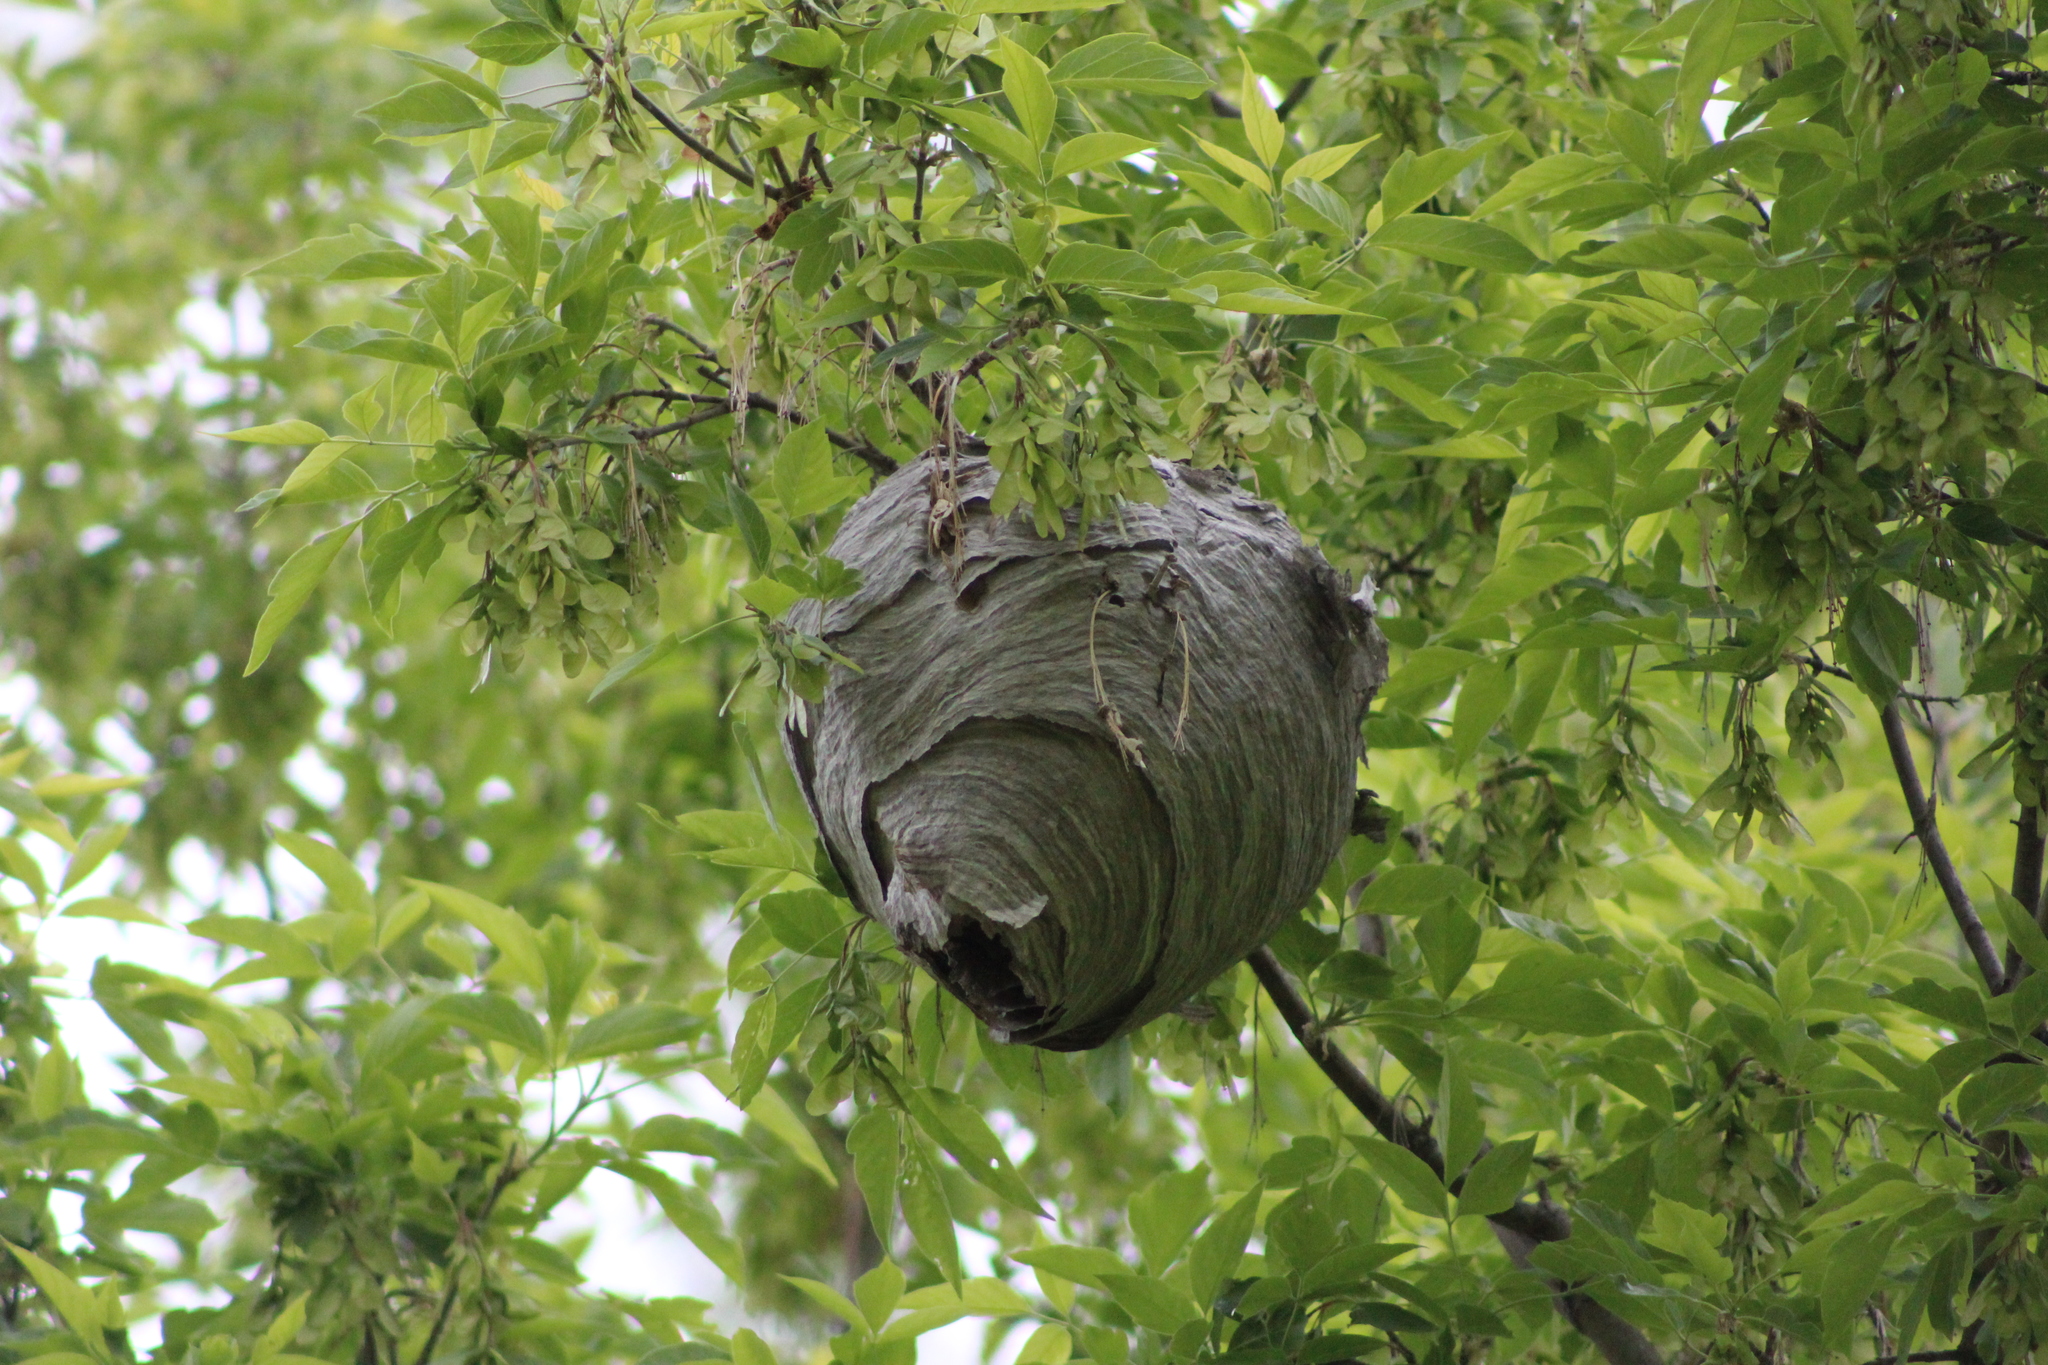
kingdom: Animalia
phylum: Arthropoda
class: Insecta
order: Hymenoptera
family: Vespidae
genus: Dolichovespula
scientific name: Dolichovespula
